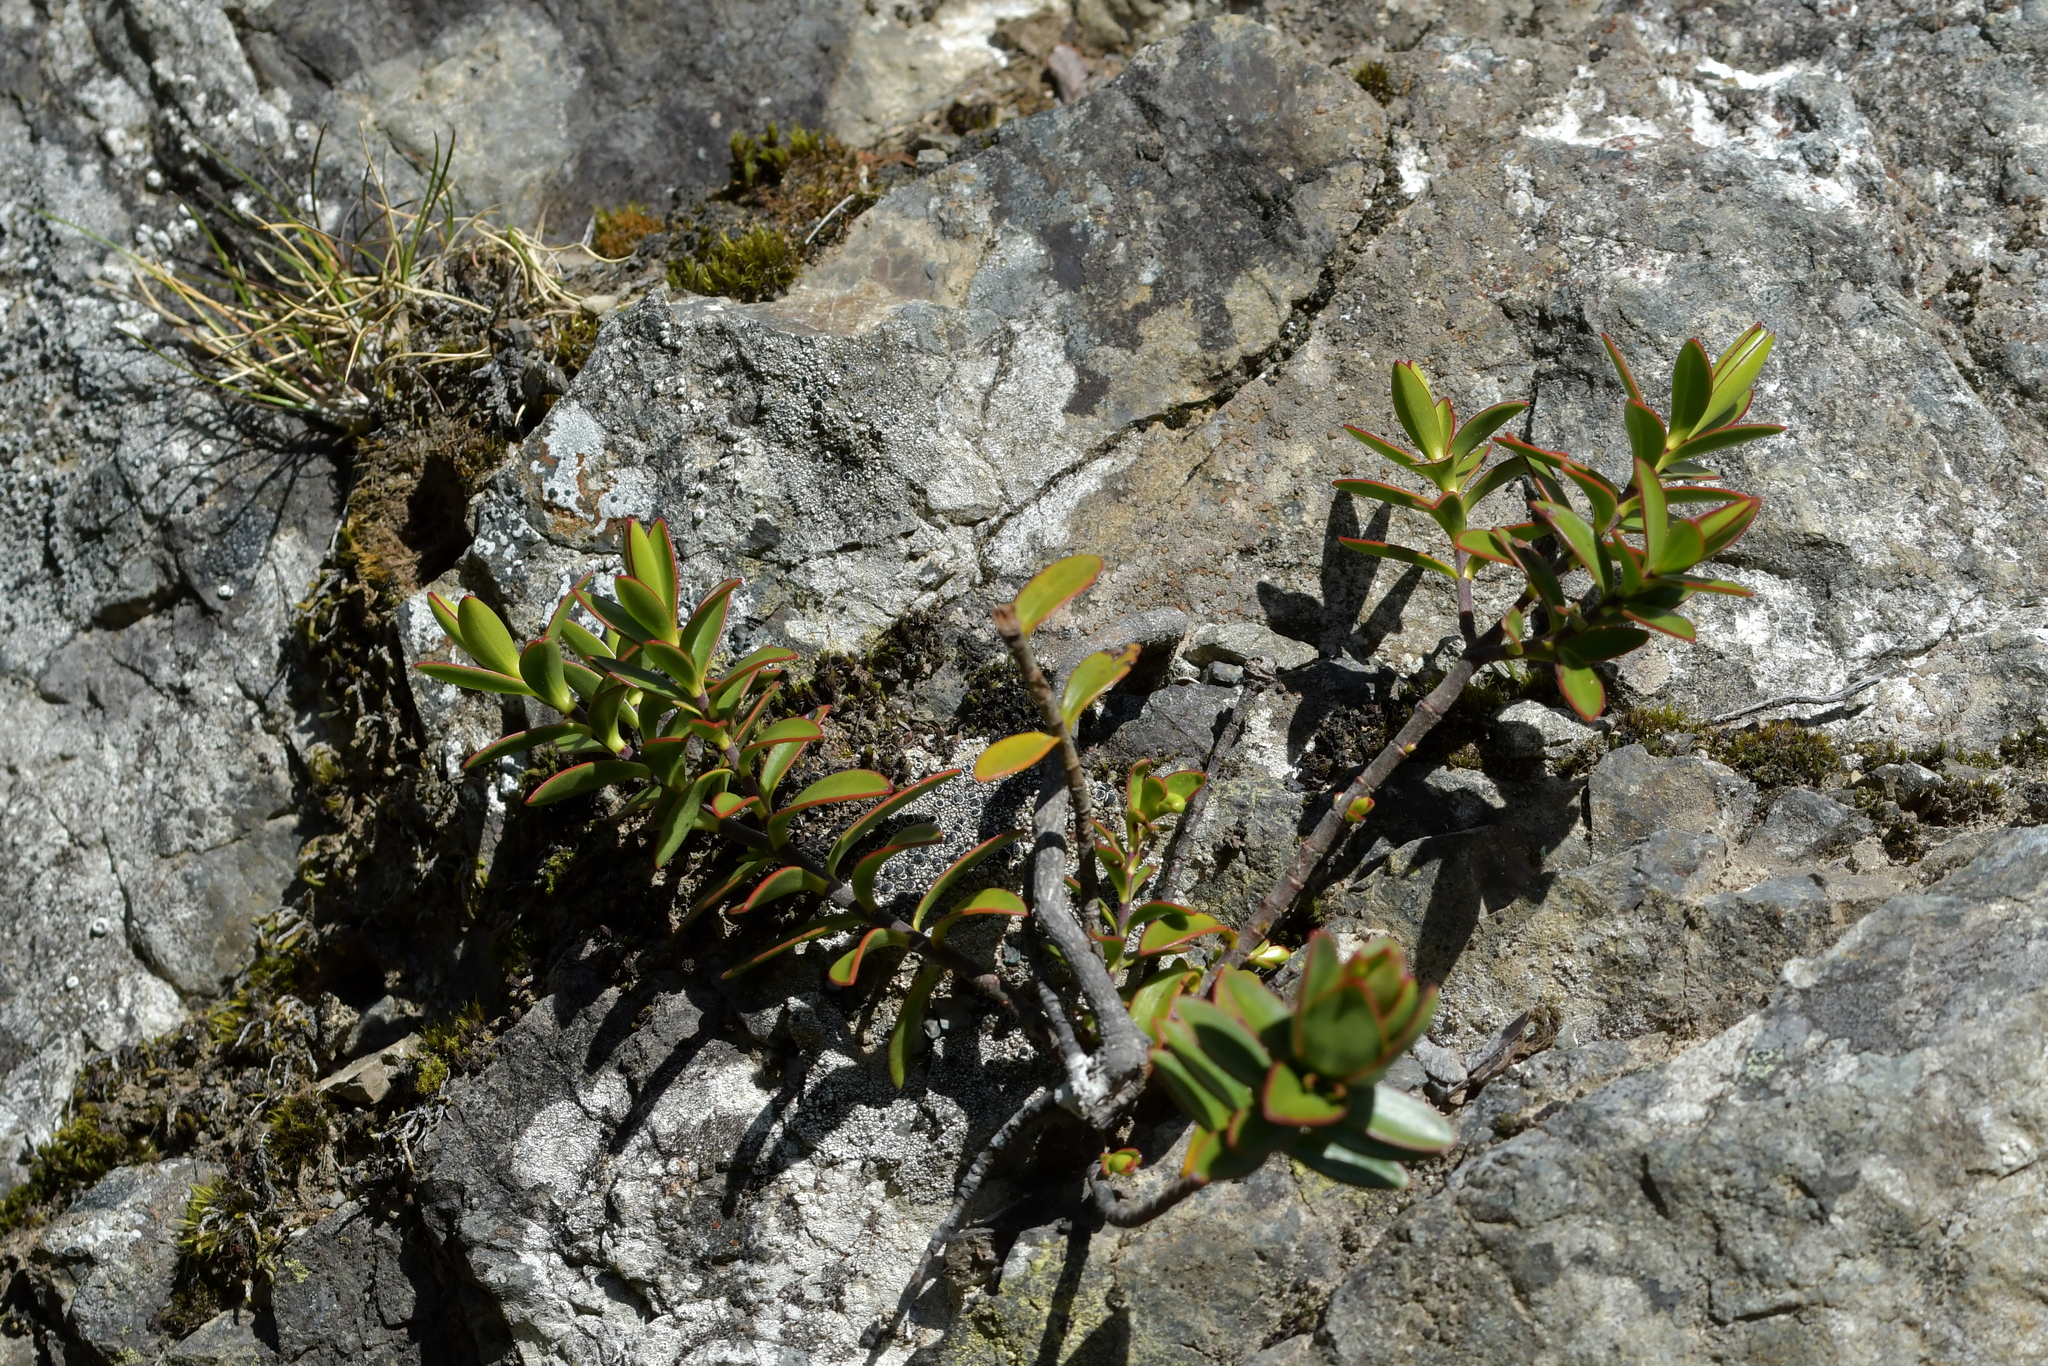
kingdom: Plantae
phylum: Tracheophyta
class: Magnoliopsida
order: Lamiales
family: Plantaginaceae
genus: Veronica
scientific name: Veronica decumbens
